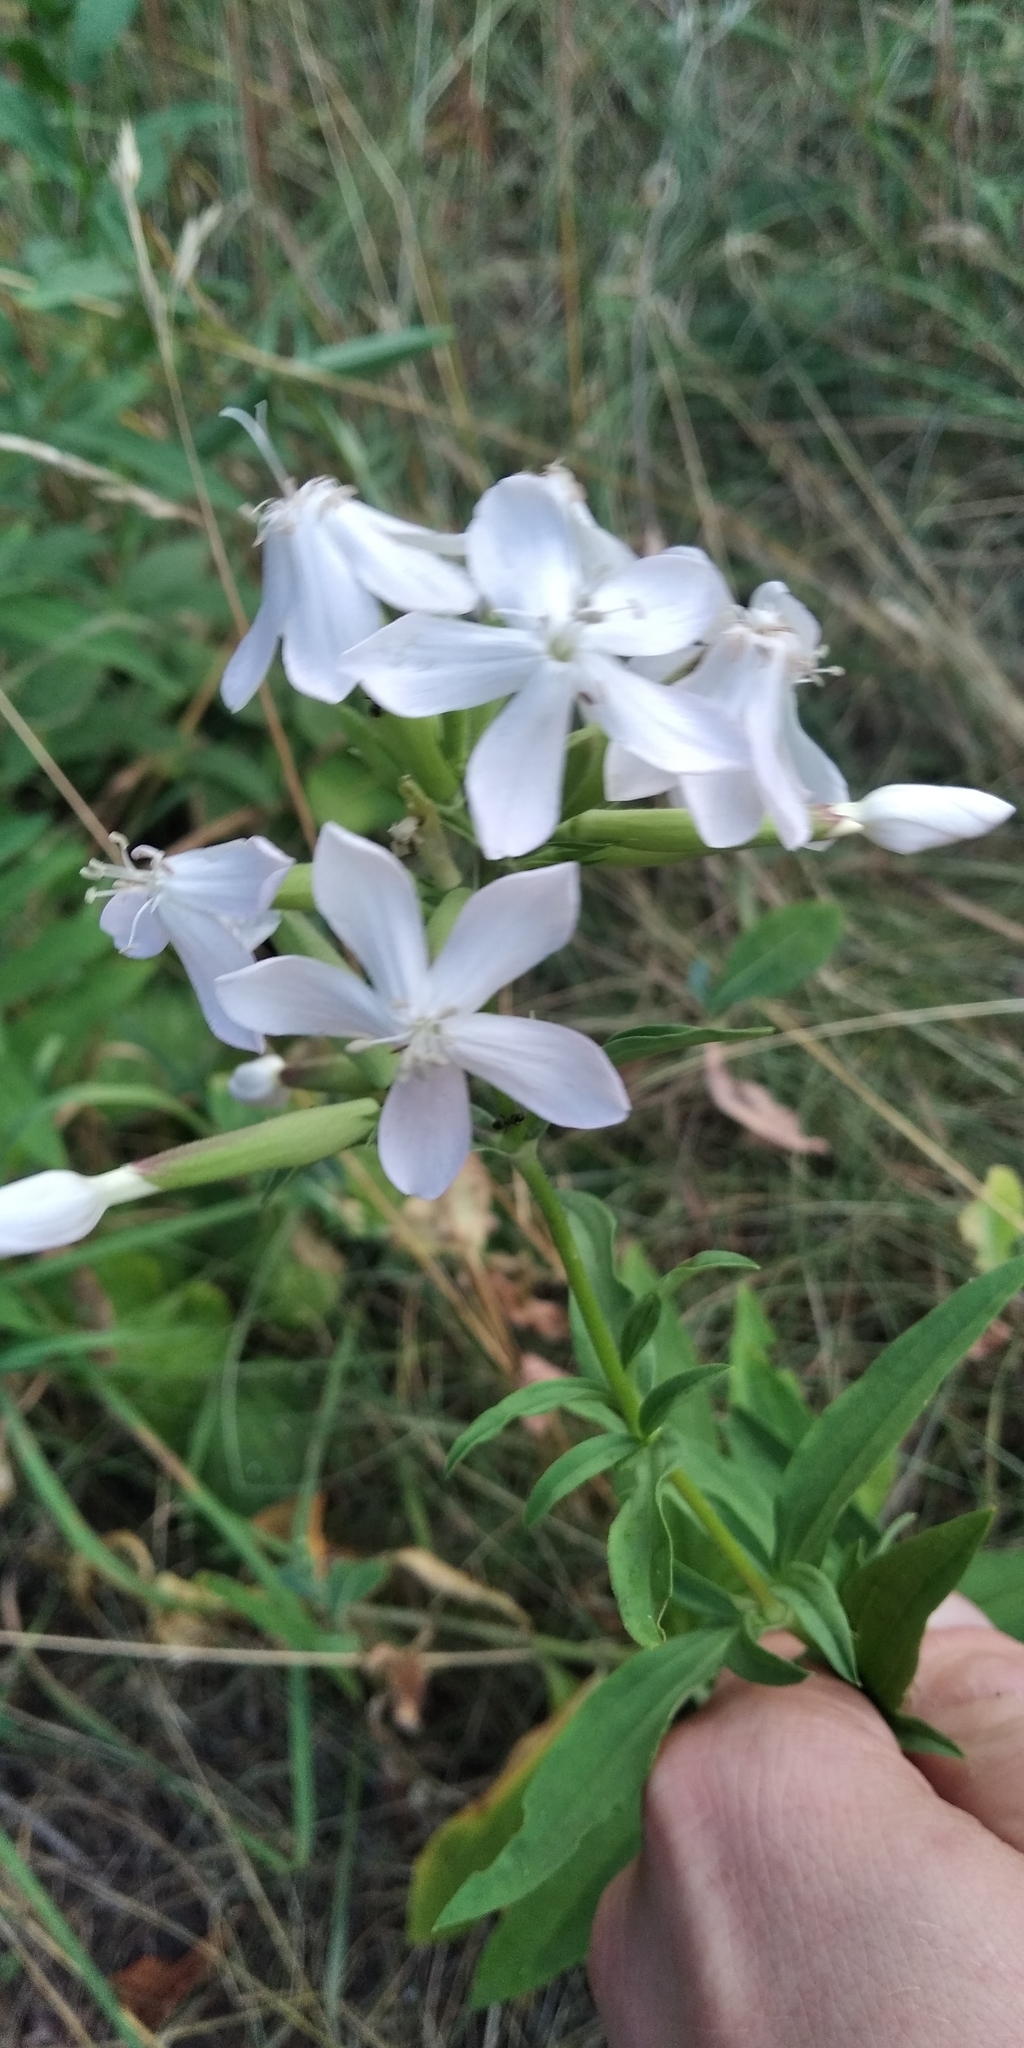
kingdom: Plantae
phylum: Tracheophyta
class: Magnoliopsida
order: Caryophyllales
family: Caryophyllaceae
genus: Saponaria
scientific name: Saponaria officinalis
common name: Soapwort
